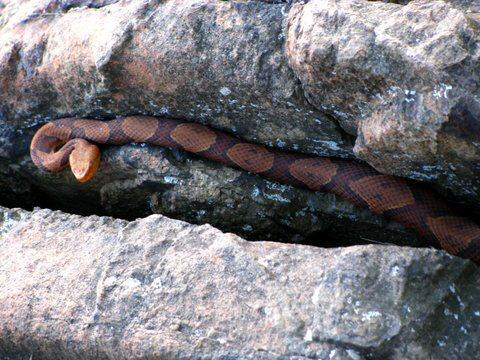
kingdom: Animalia
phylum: Chordata
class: Squamata
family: Viperidae
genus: Agkistrodon
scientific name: Agkistrodon contortrix
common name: Northern copperhead
